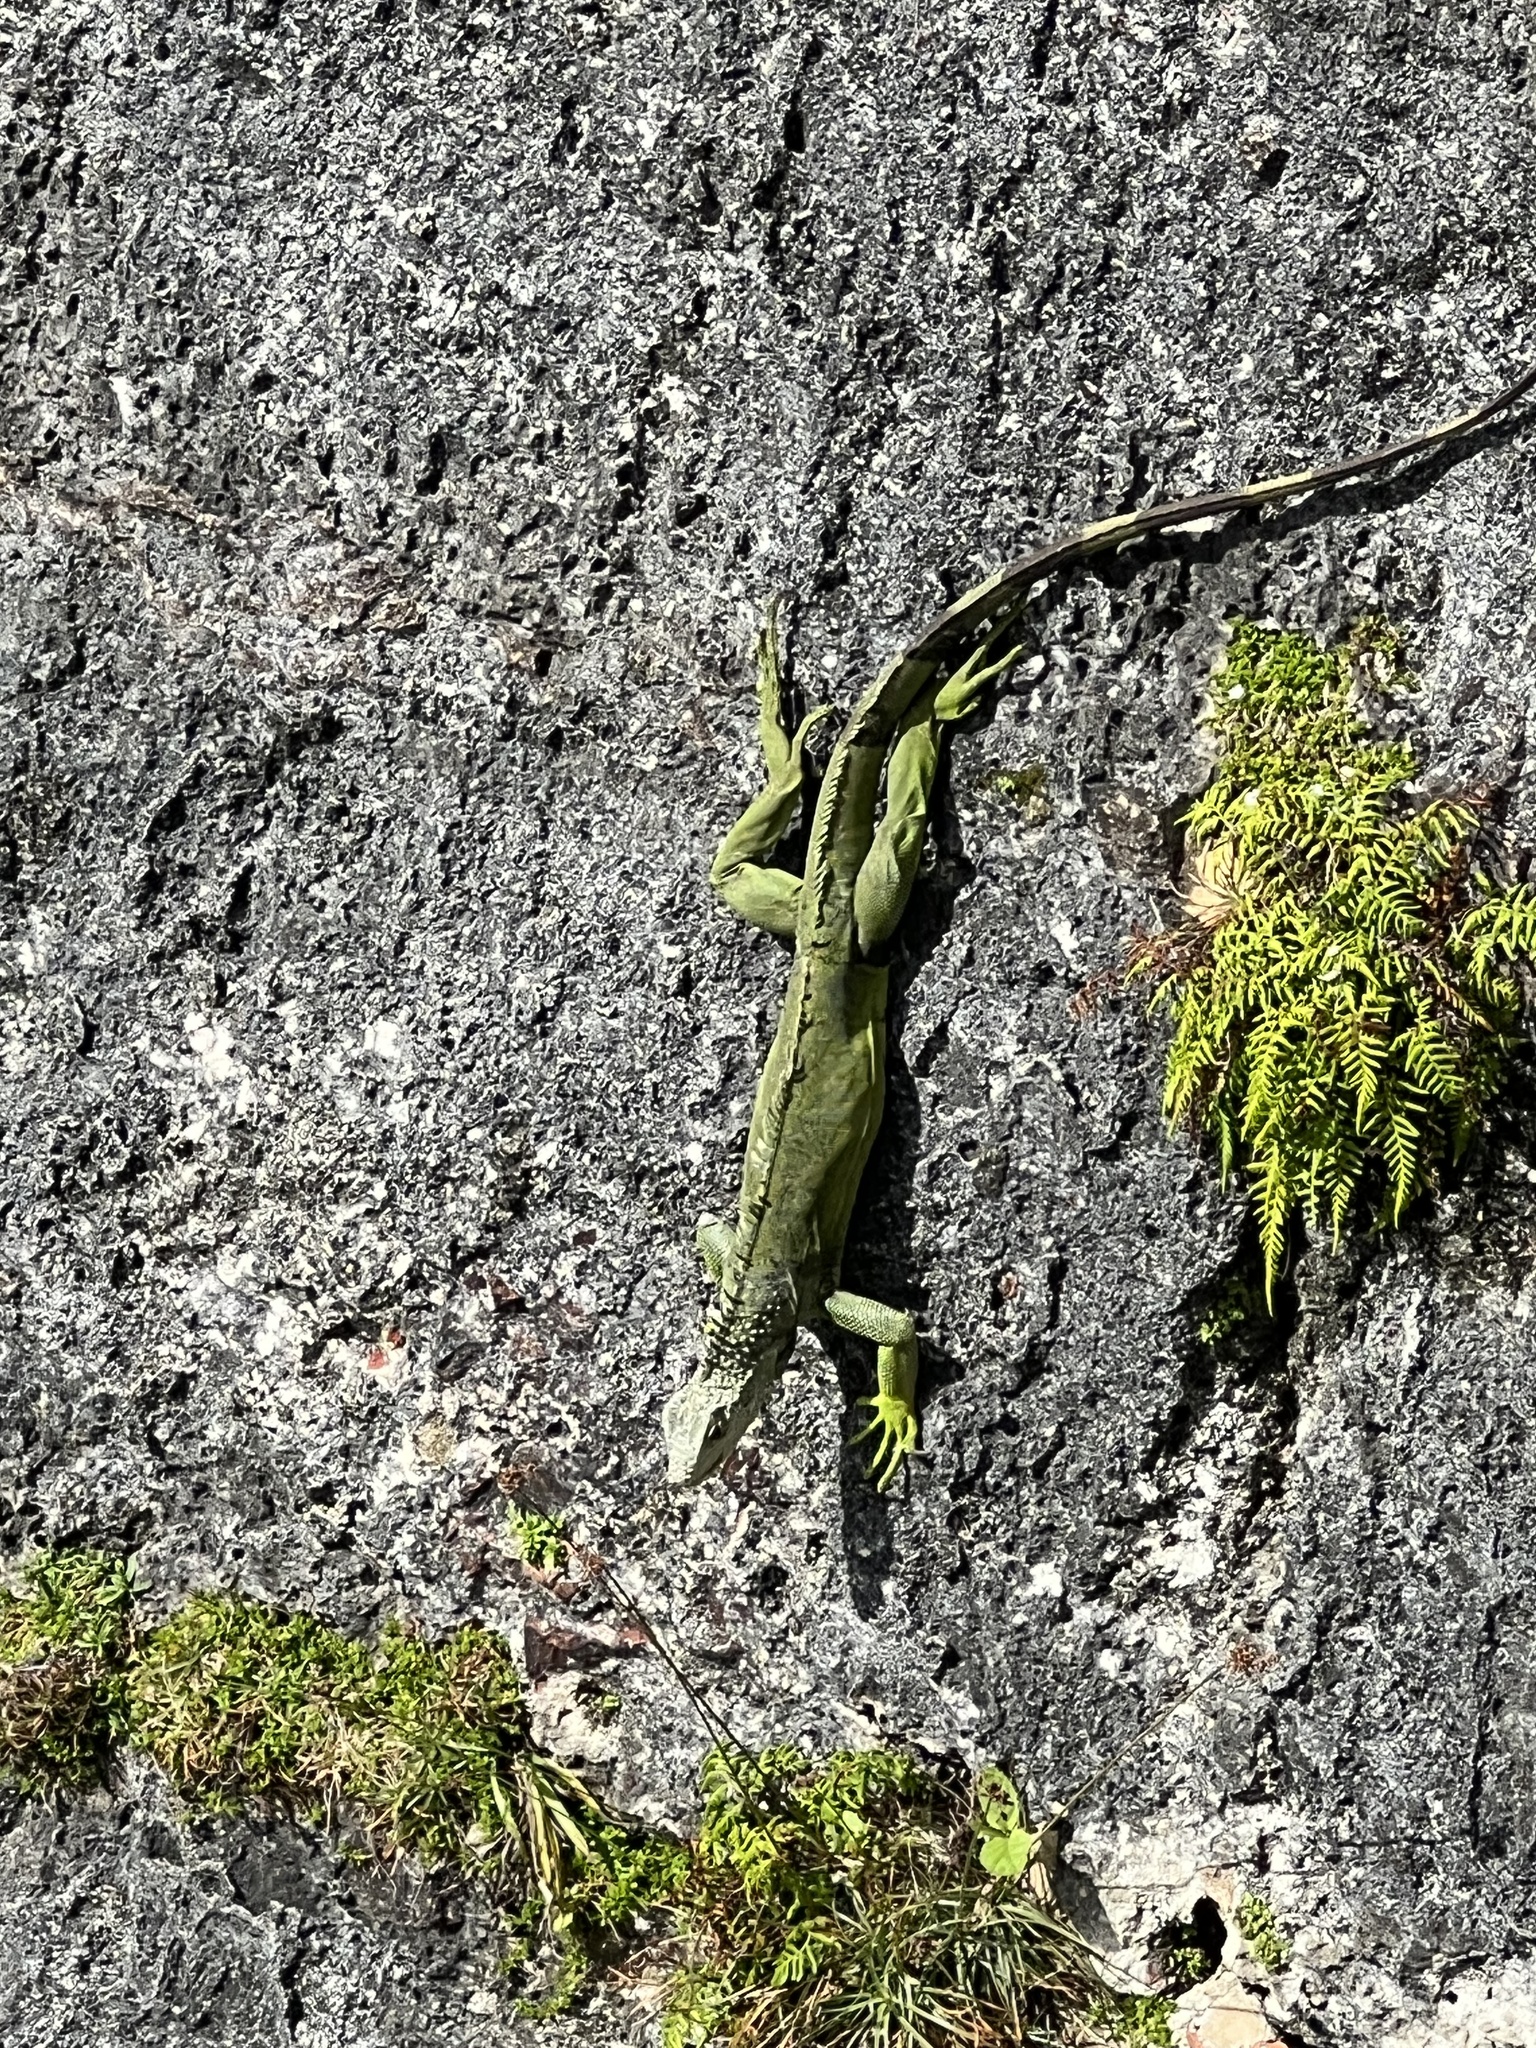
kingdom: Animalia
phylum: Chordata
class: Squamata
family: Iguanidae
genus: Iguana
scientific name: Iguana iguana
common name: Green iguana
